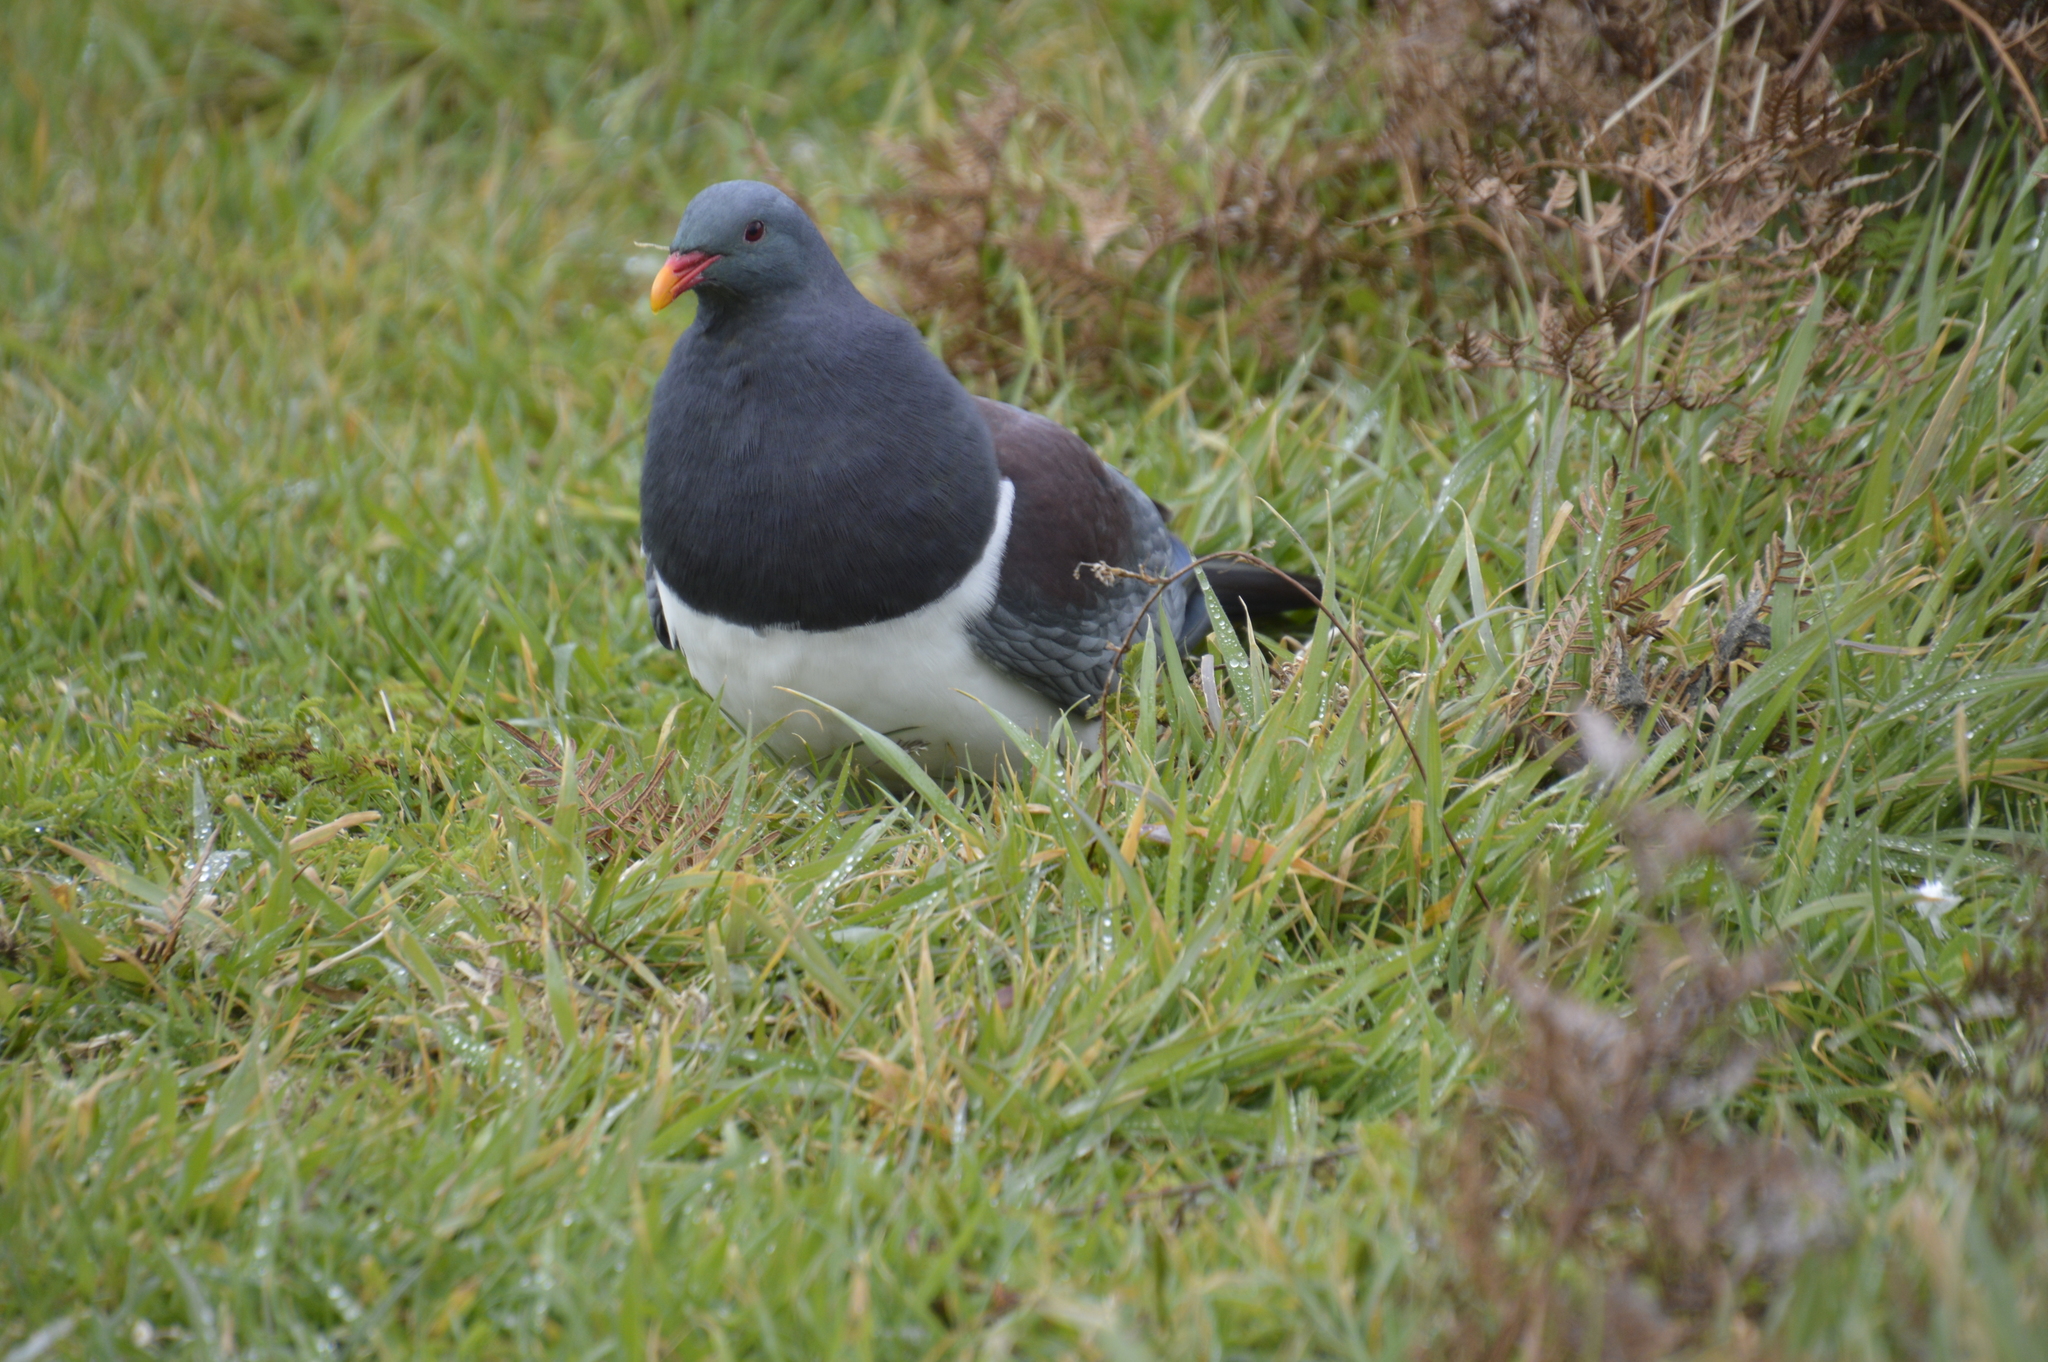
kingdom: Animalia
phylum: Chordata
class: Aves
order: Columbiformes
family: Columbidae
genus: Hemiphaga
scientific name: Hemiphaga chathamensis
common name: Chatham pigeon
